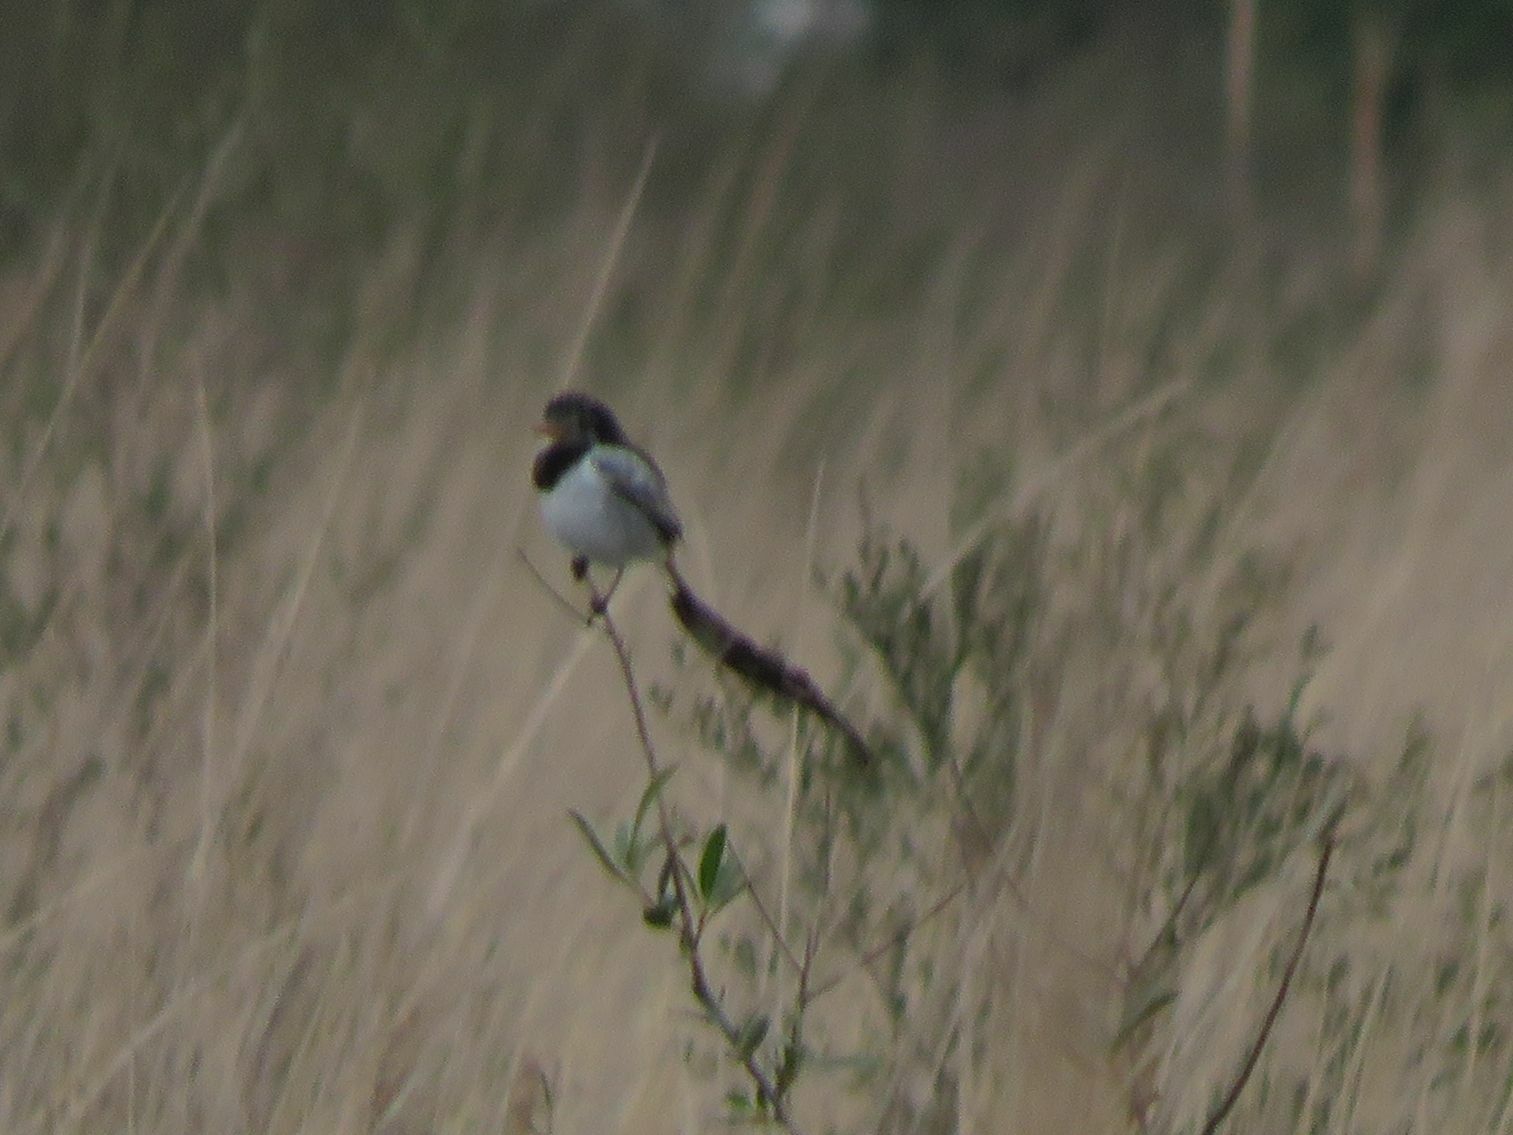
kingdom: Animalia
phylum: Chordata
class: Aves
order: Passeriformes
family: Tyrannidae
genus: Alectrurus
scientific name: Alectrurus risora
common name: Strange-tailed tyrant
